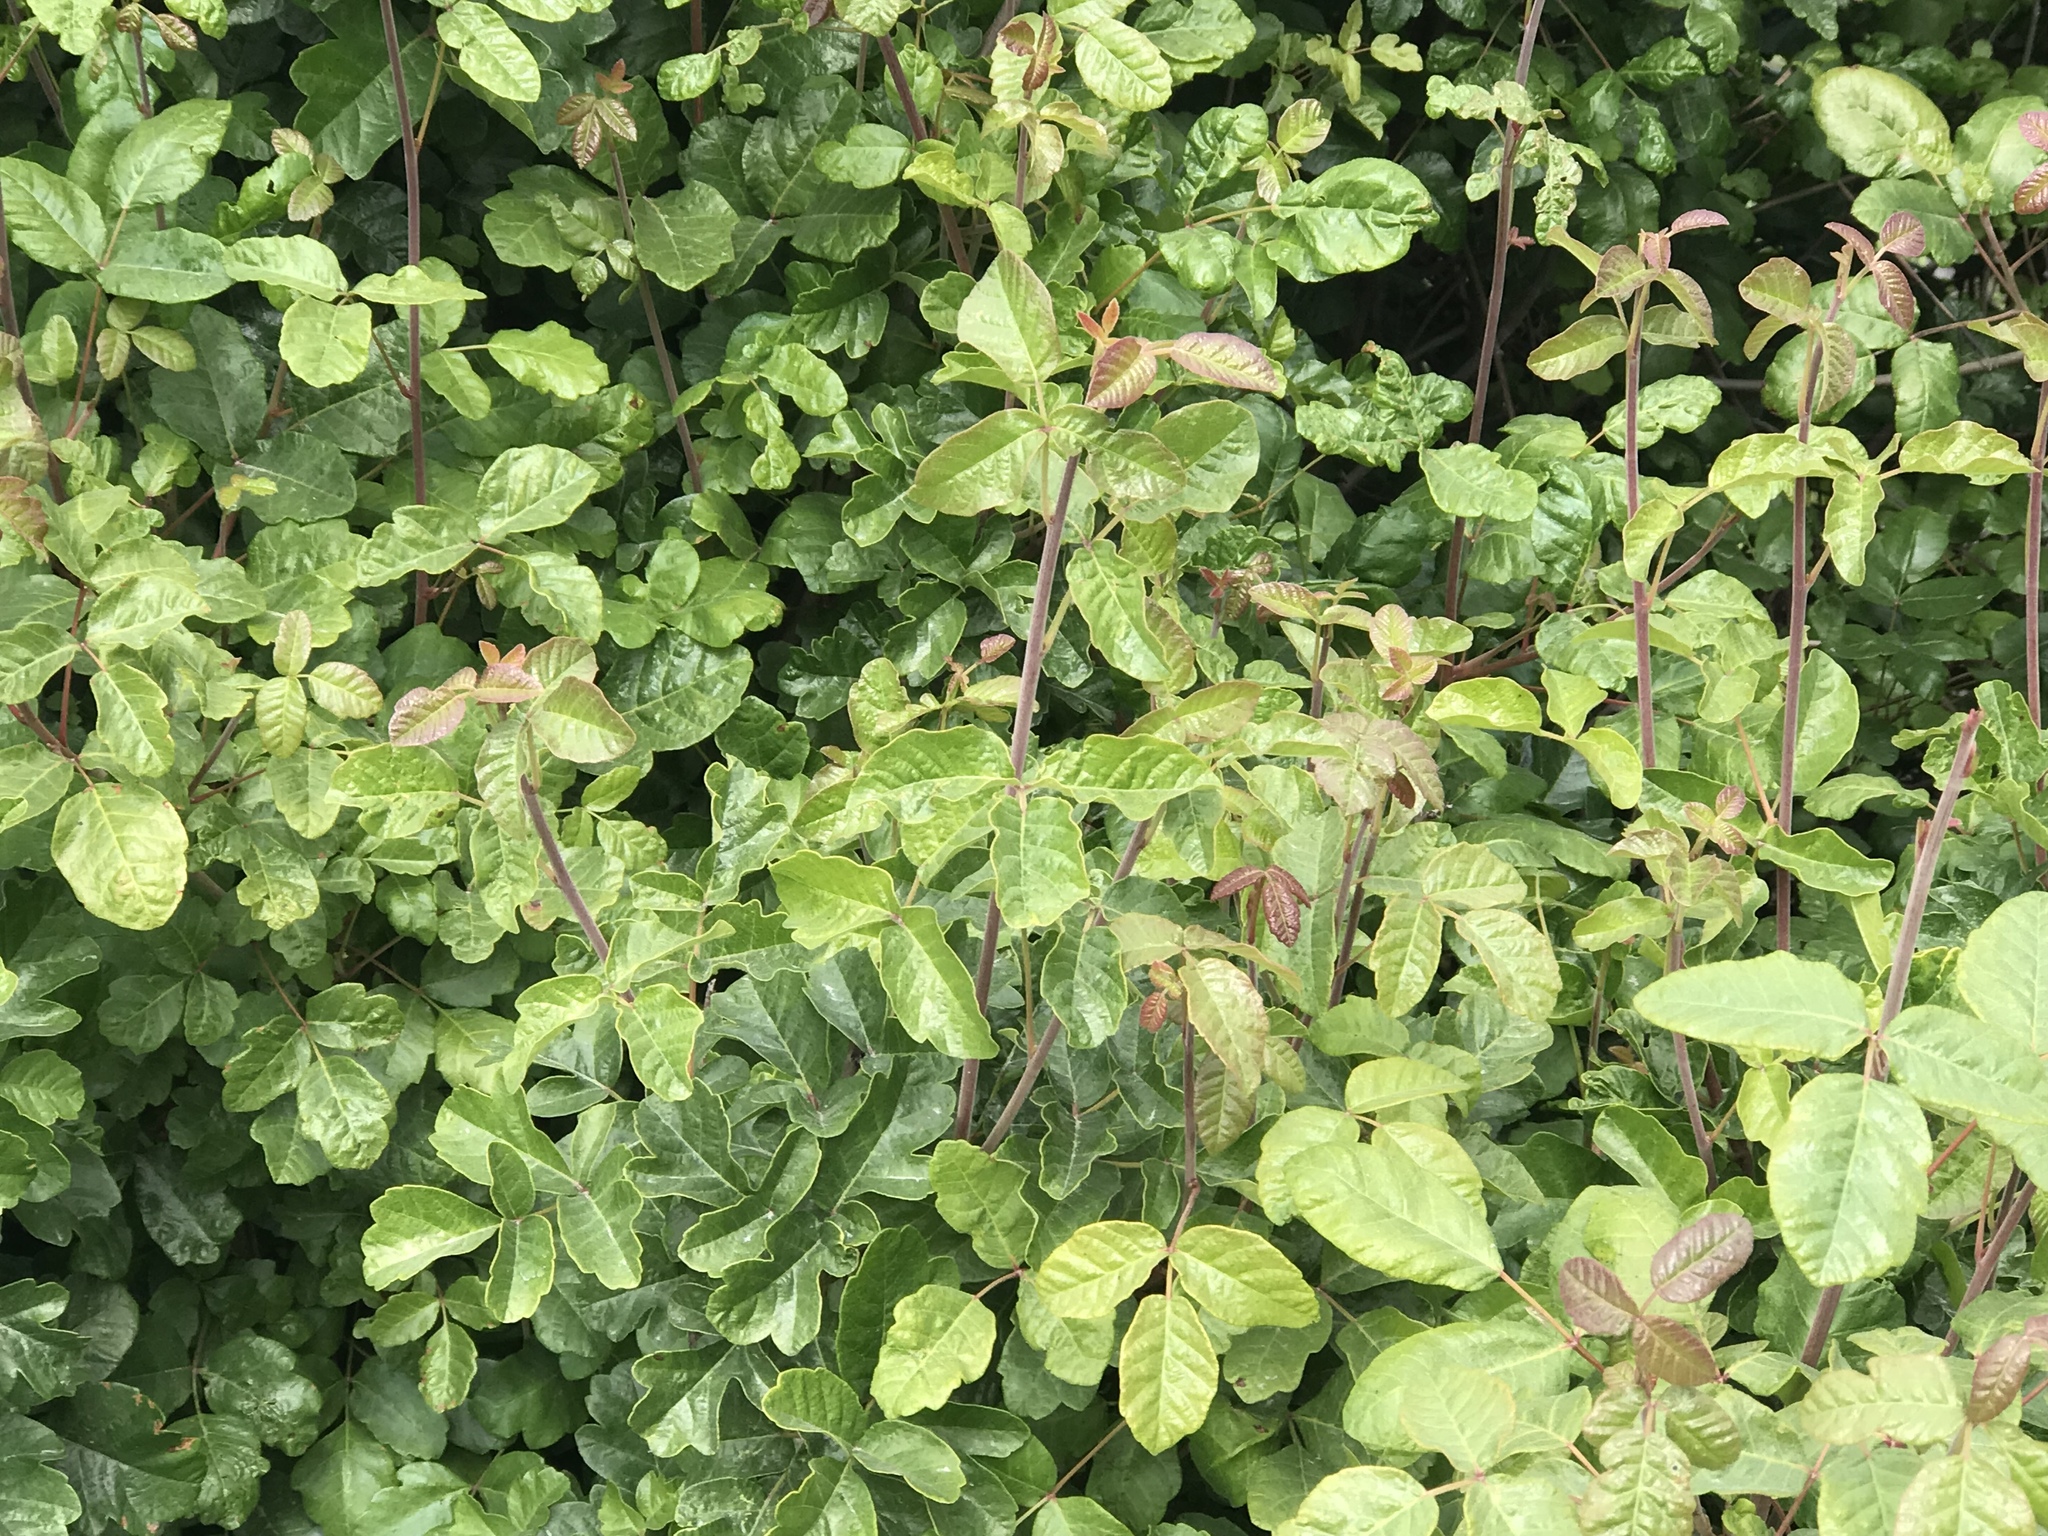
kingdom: Plantae
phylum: Tracheophyta
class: Magnoliopsida
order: Sapindales
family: Anacardiaceae
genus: Toxicodendron
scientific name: Toxicodendron diversilobum
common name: Pacific poison-oak
